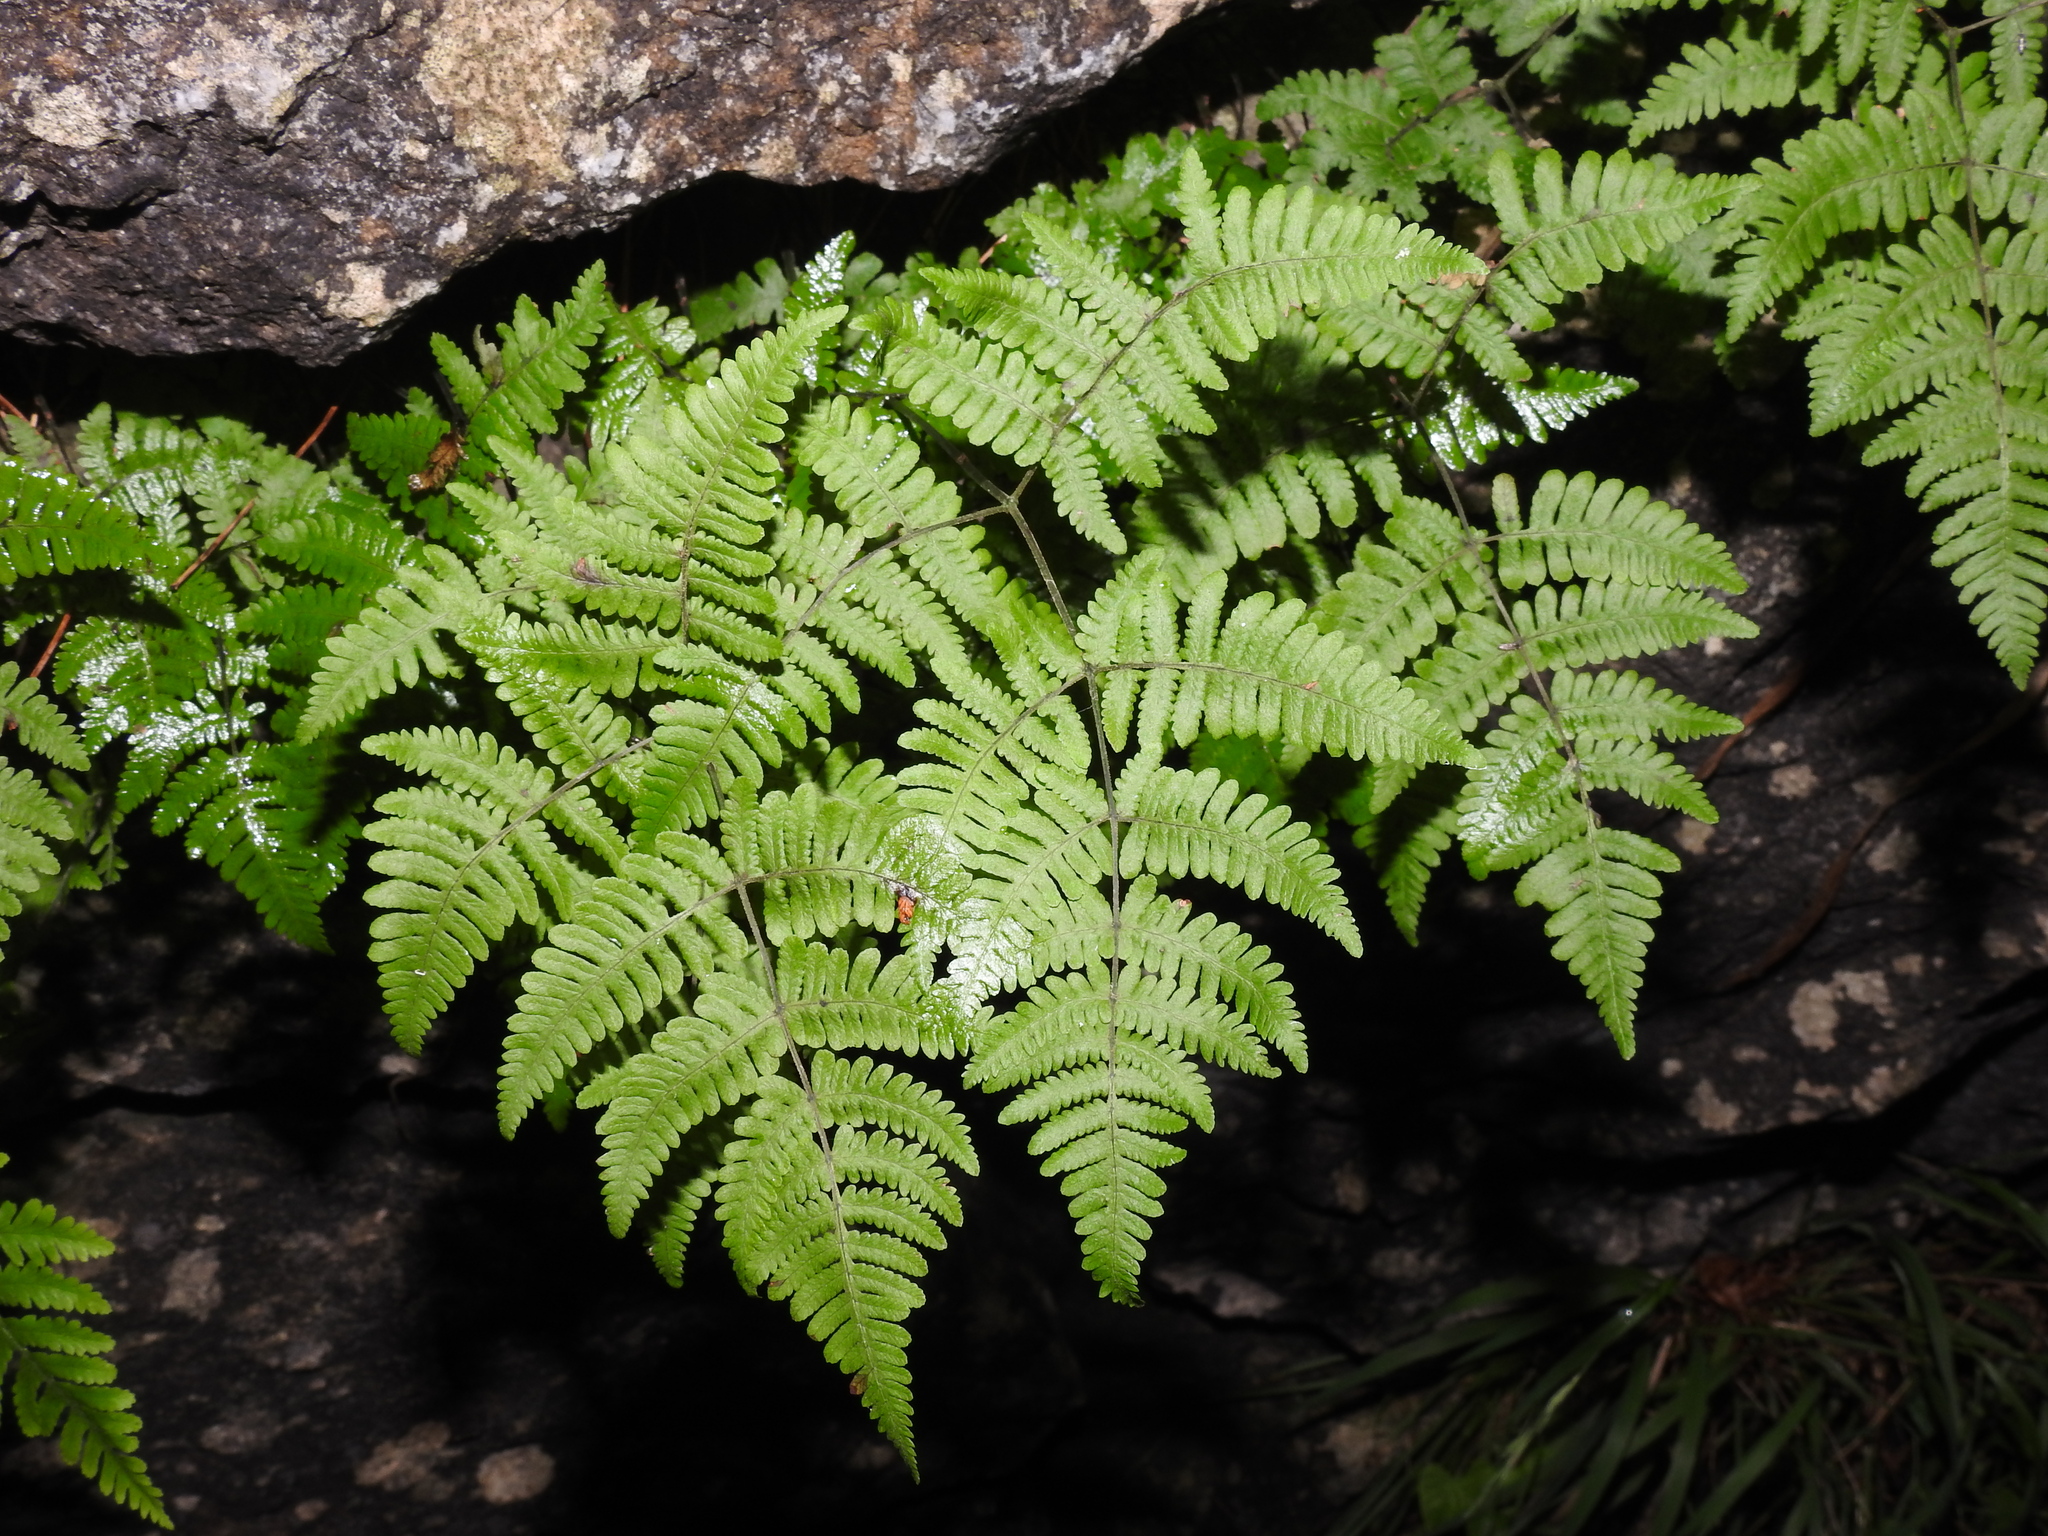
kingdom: Plantae
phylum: Tracheophyta
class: Polypodiopsida
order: Polypodiales
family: Cystopteridaceae
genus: Gymnocarpium
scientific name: Gymnocarpium robertianum
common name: Limestone fern
